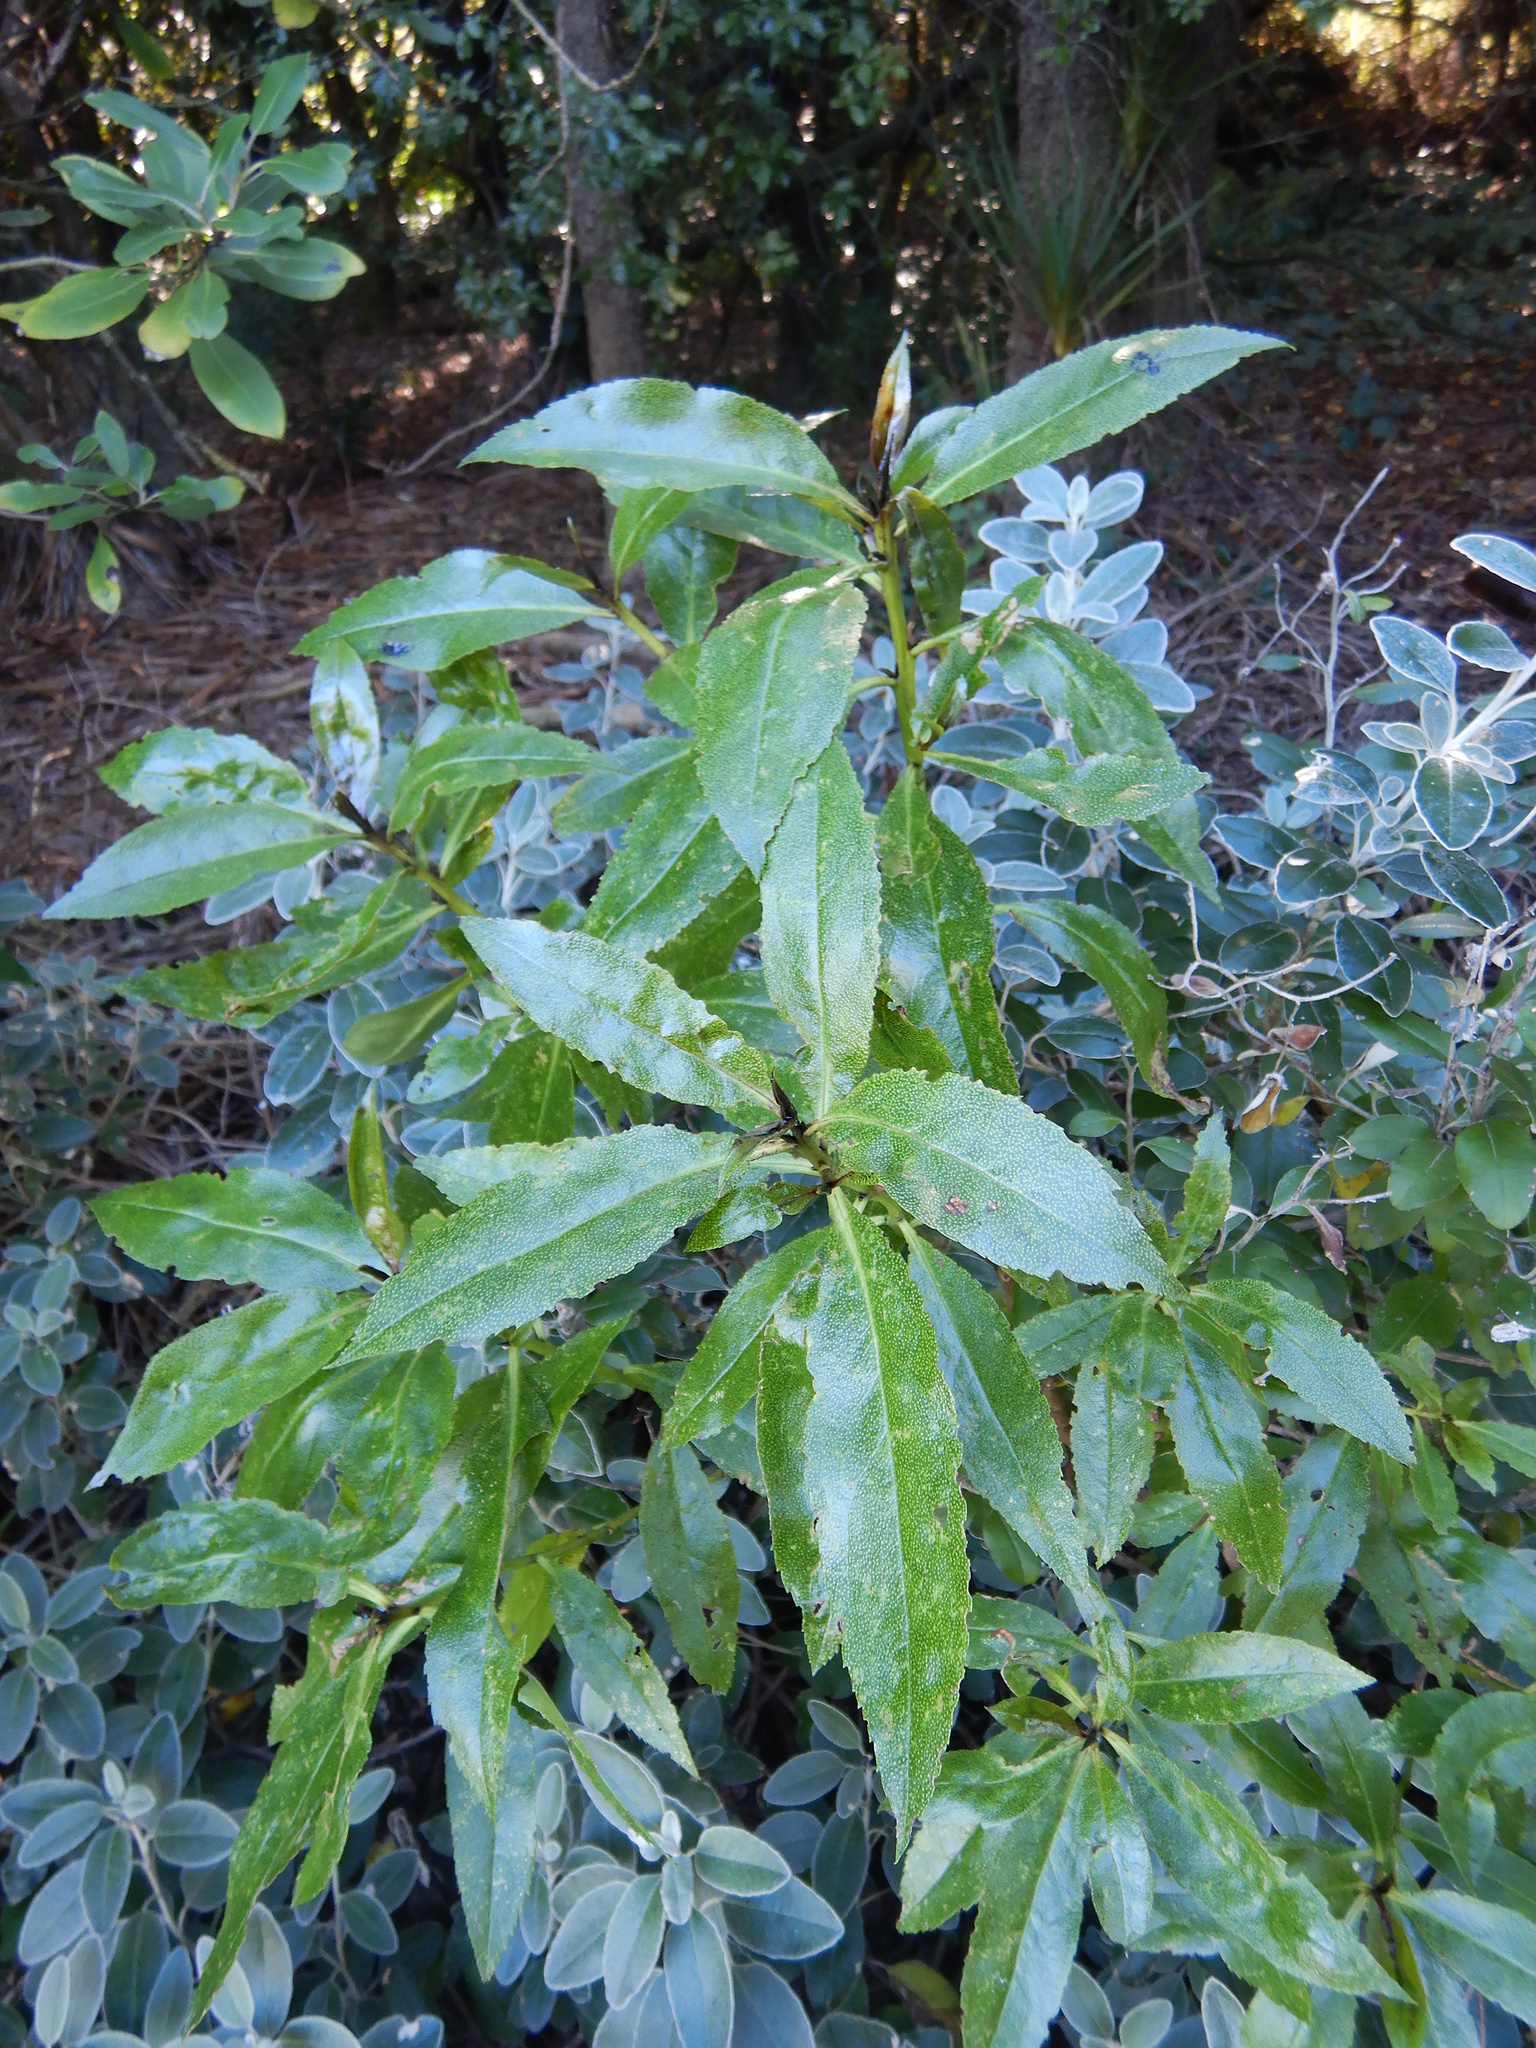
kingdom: Plantae
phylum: Tracheophyta
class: Magnoliopsida
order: Lamiales
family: Scrophulariaceae
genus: Myoporum
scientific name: Myoporum laetum
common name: Ngaio tree
